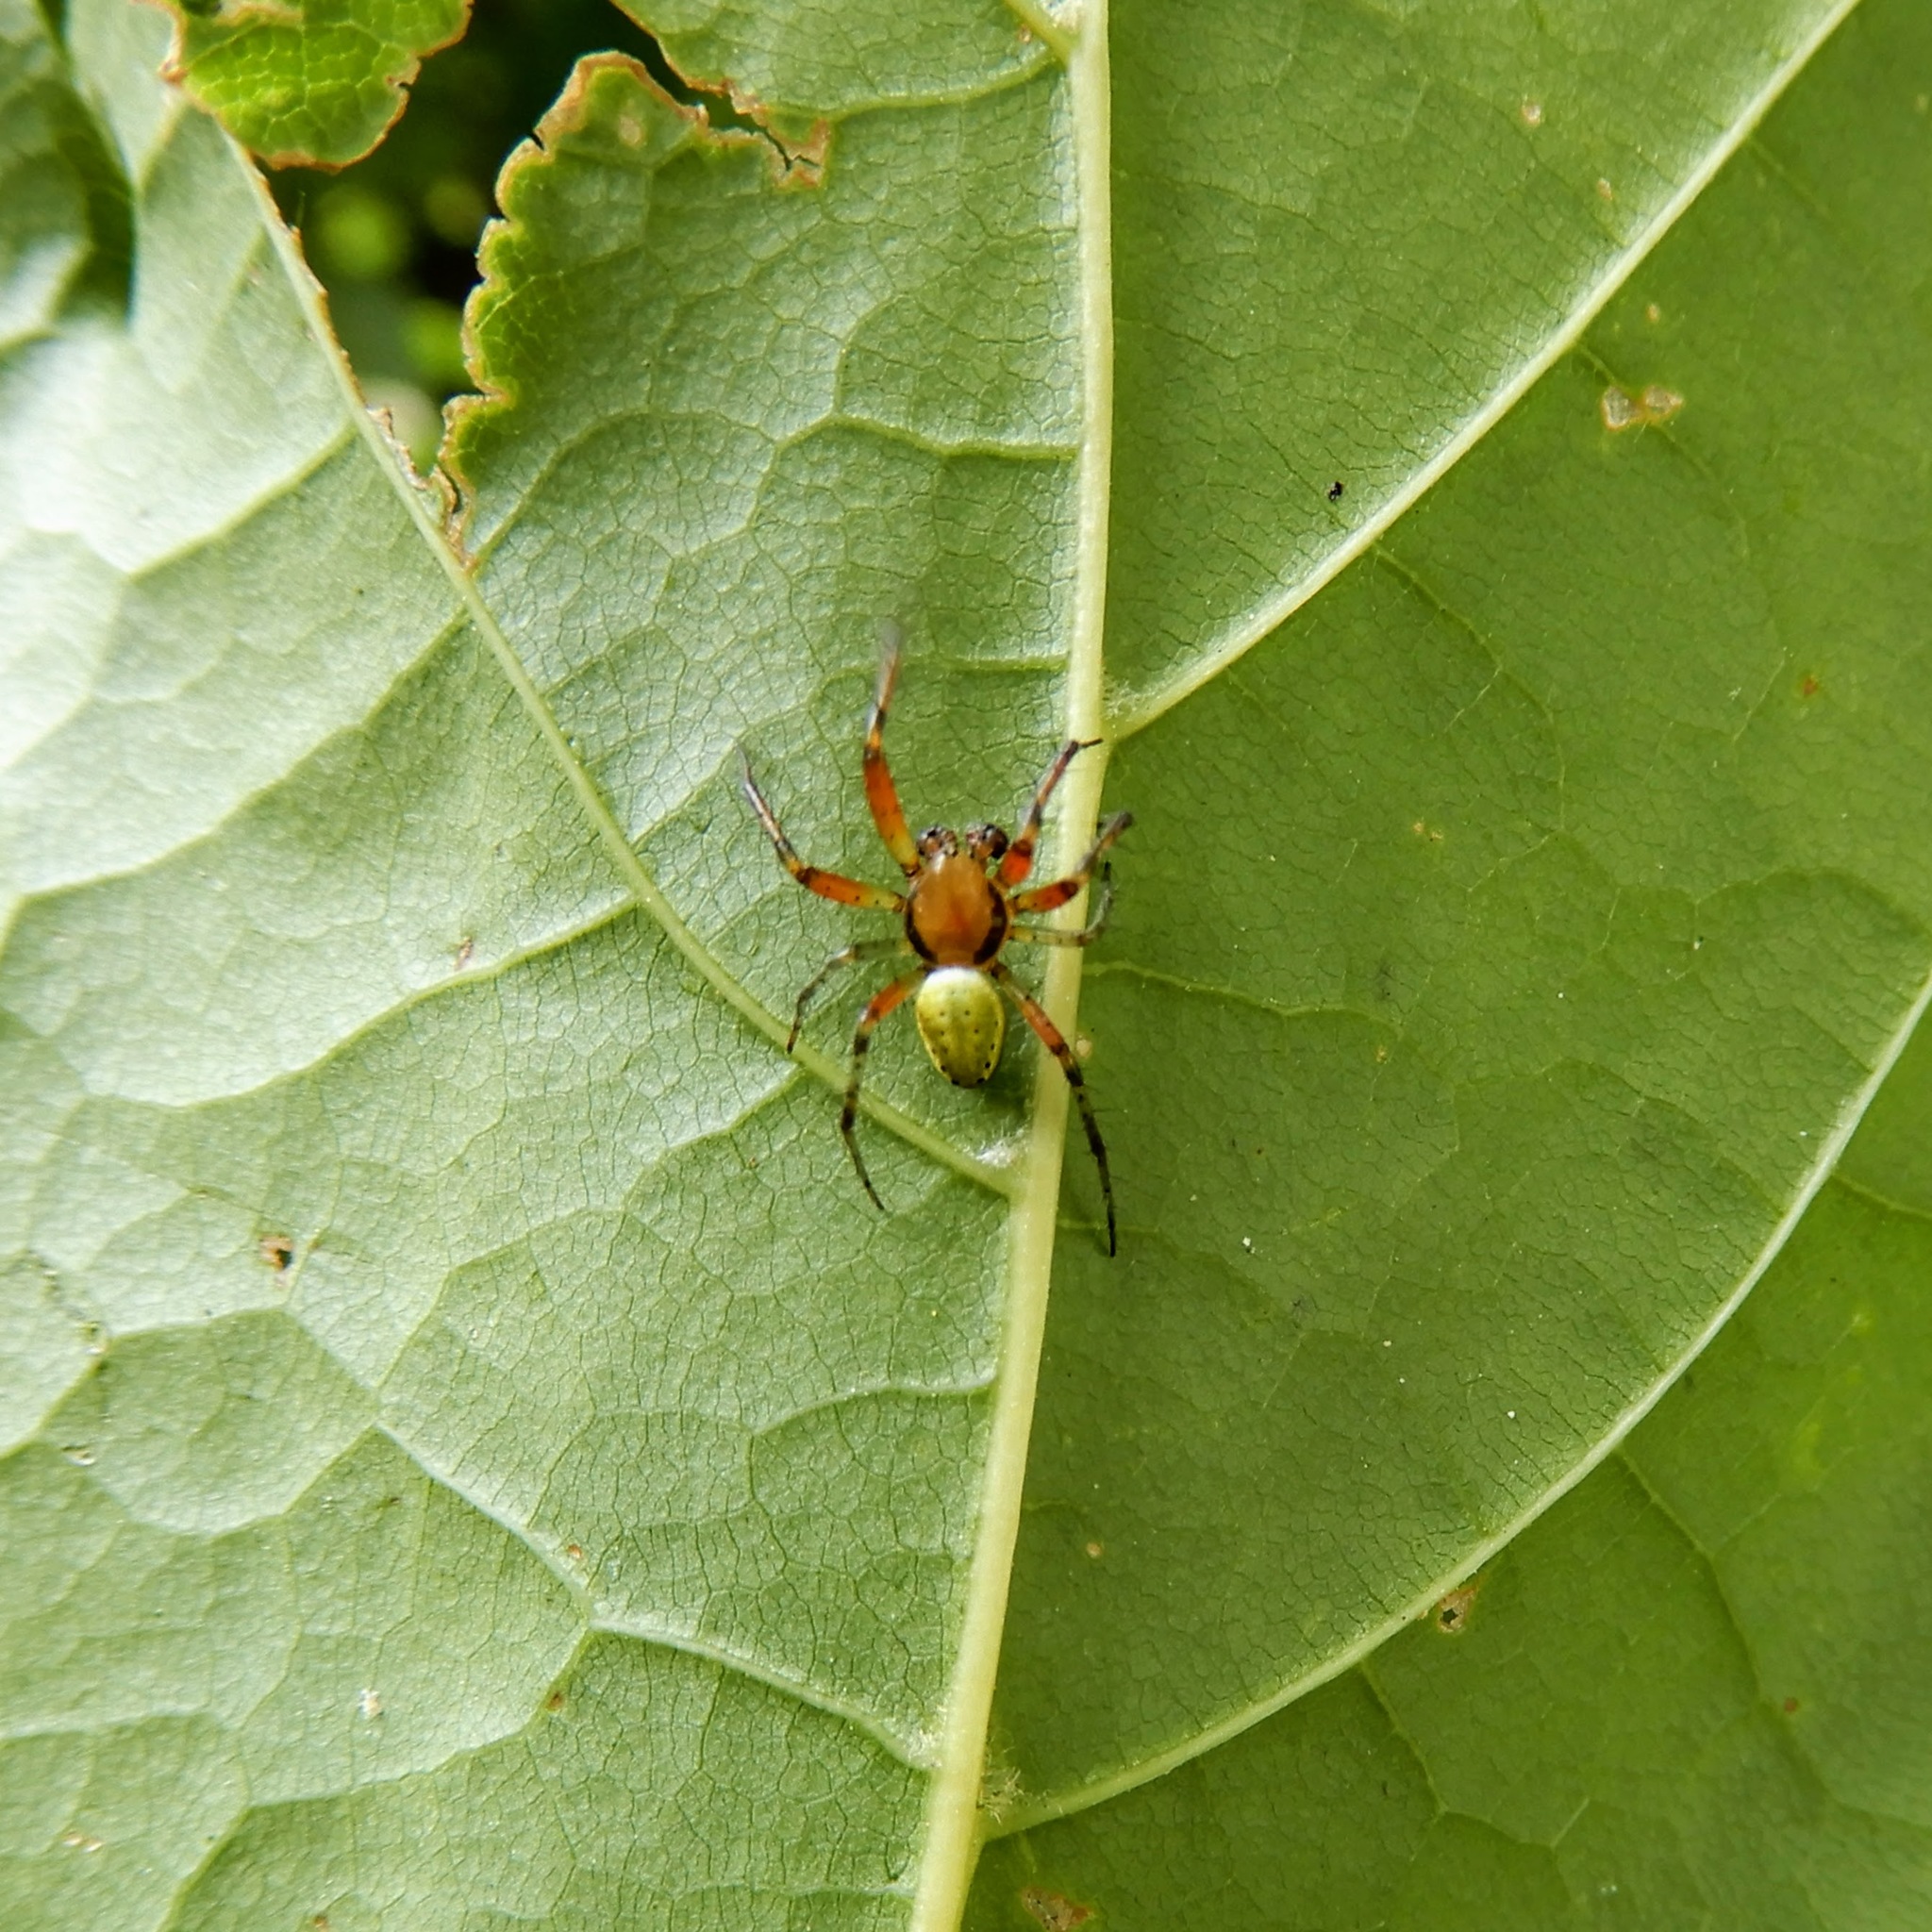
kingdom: Animalia
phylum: Arthropoda
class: Arachnida
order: Araneae
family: Araneidae
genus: Araniella
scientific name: Araniella
